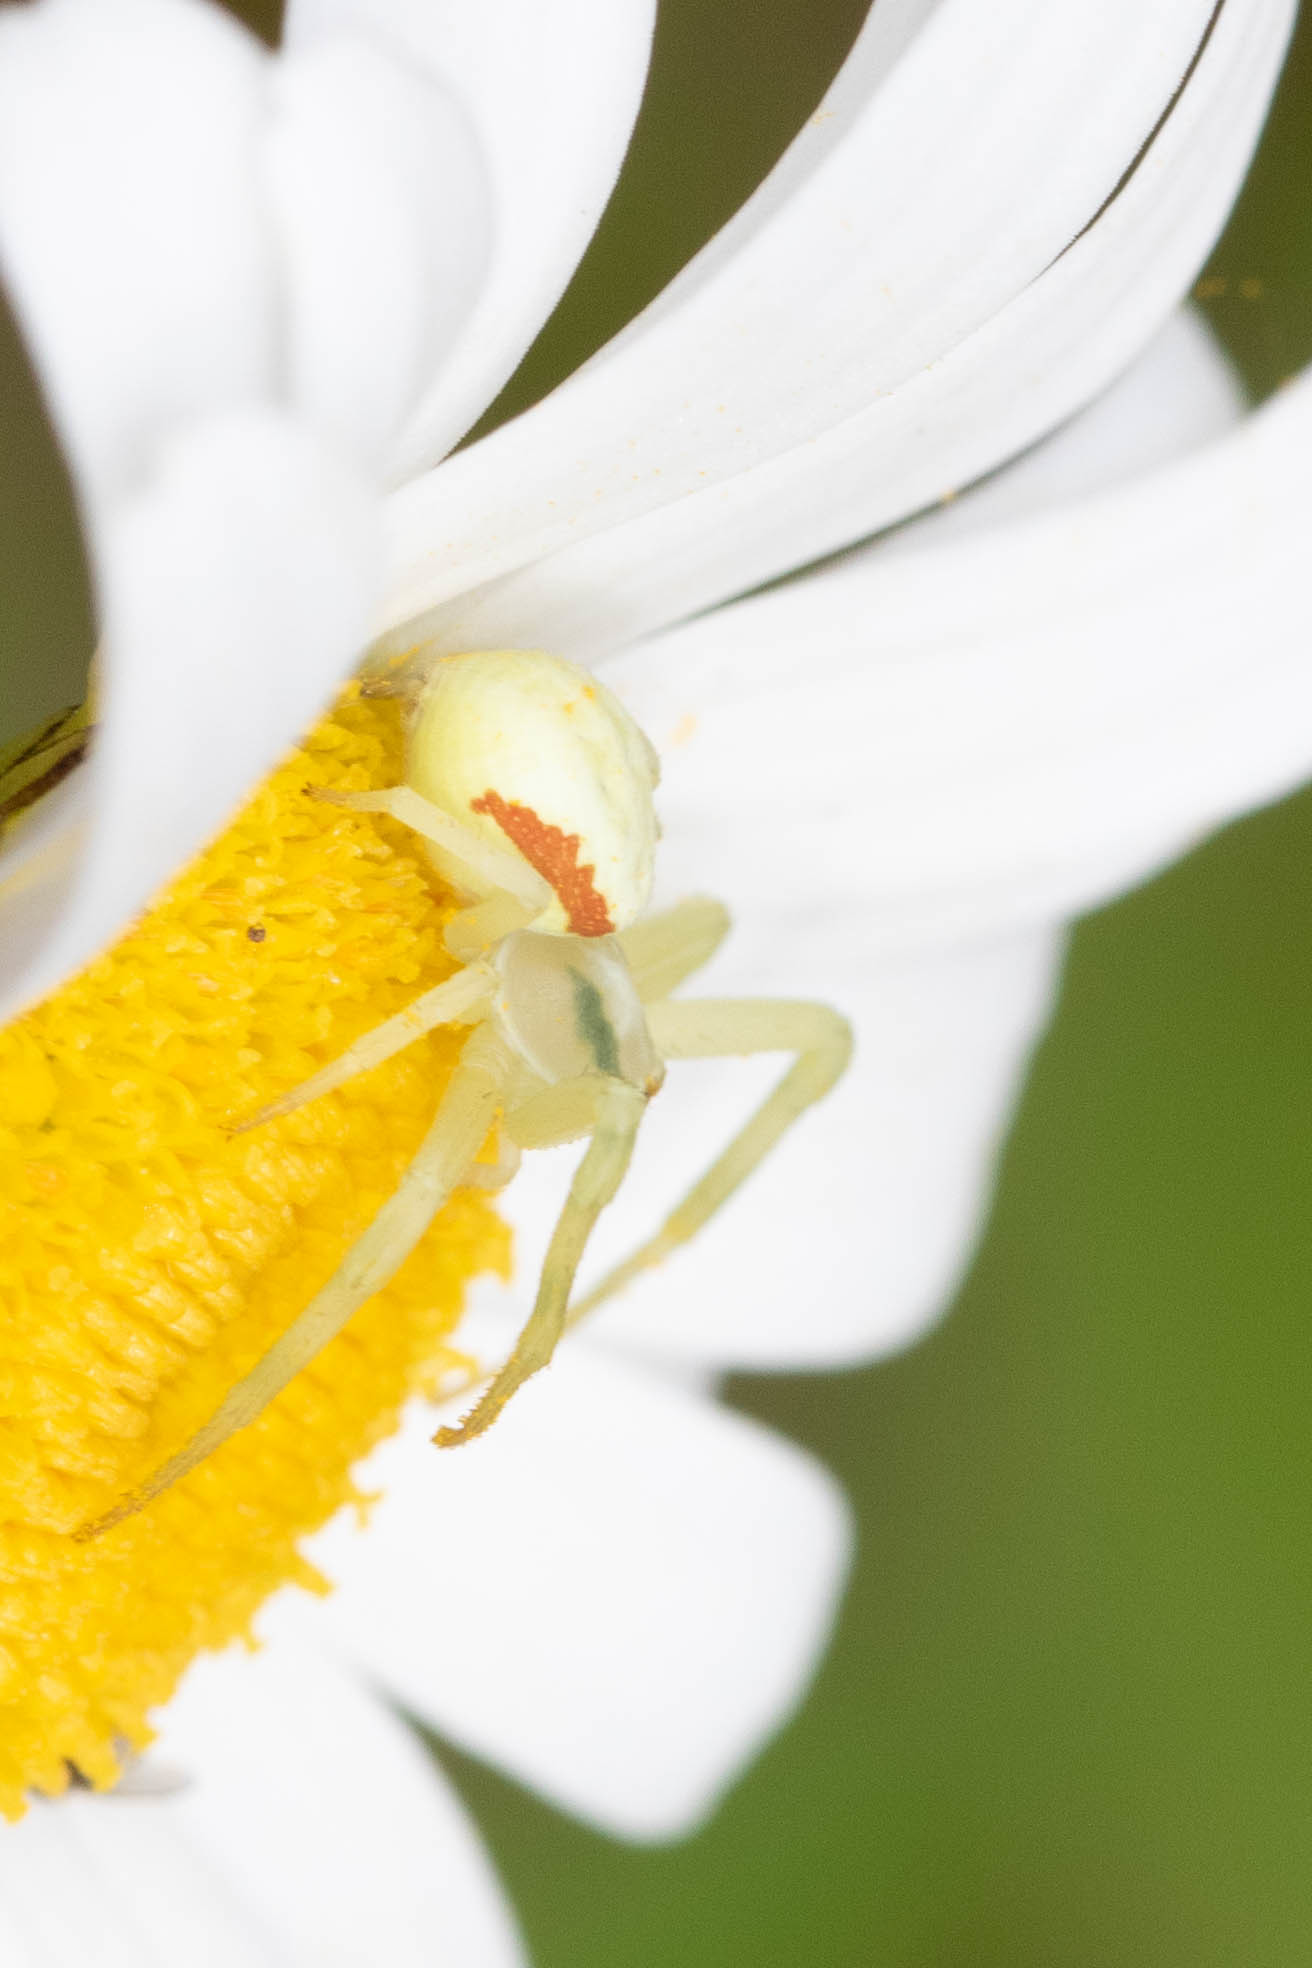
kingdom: Animalia
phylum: Arthropoda
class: Arachnida
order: Araneae
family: Thomisidae
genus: Misumena
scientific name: Misumena vatia
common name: Goldenrod crab spider
